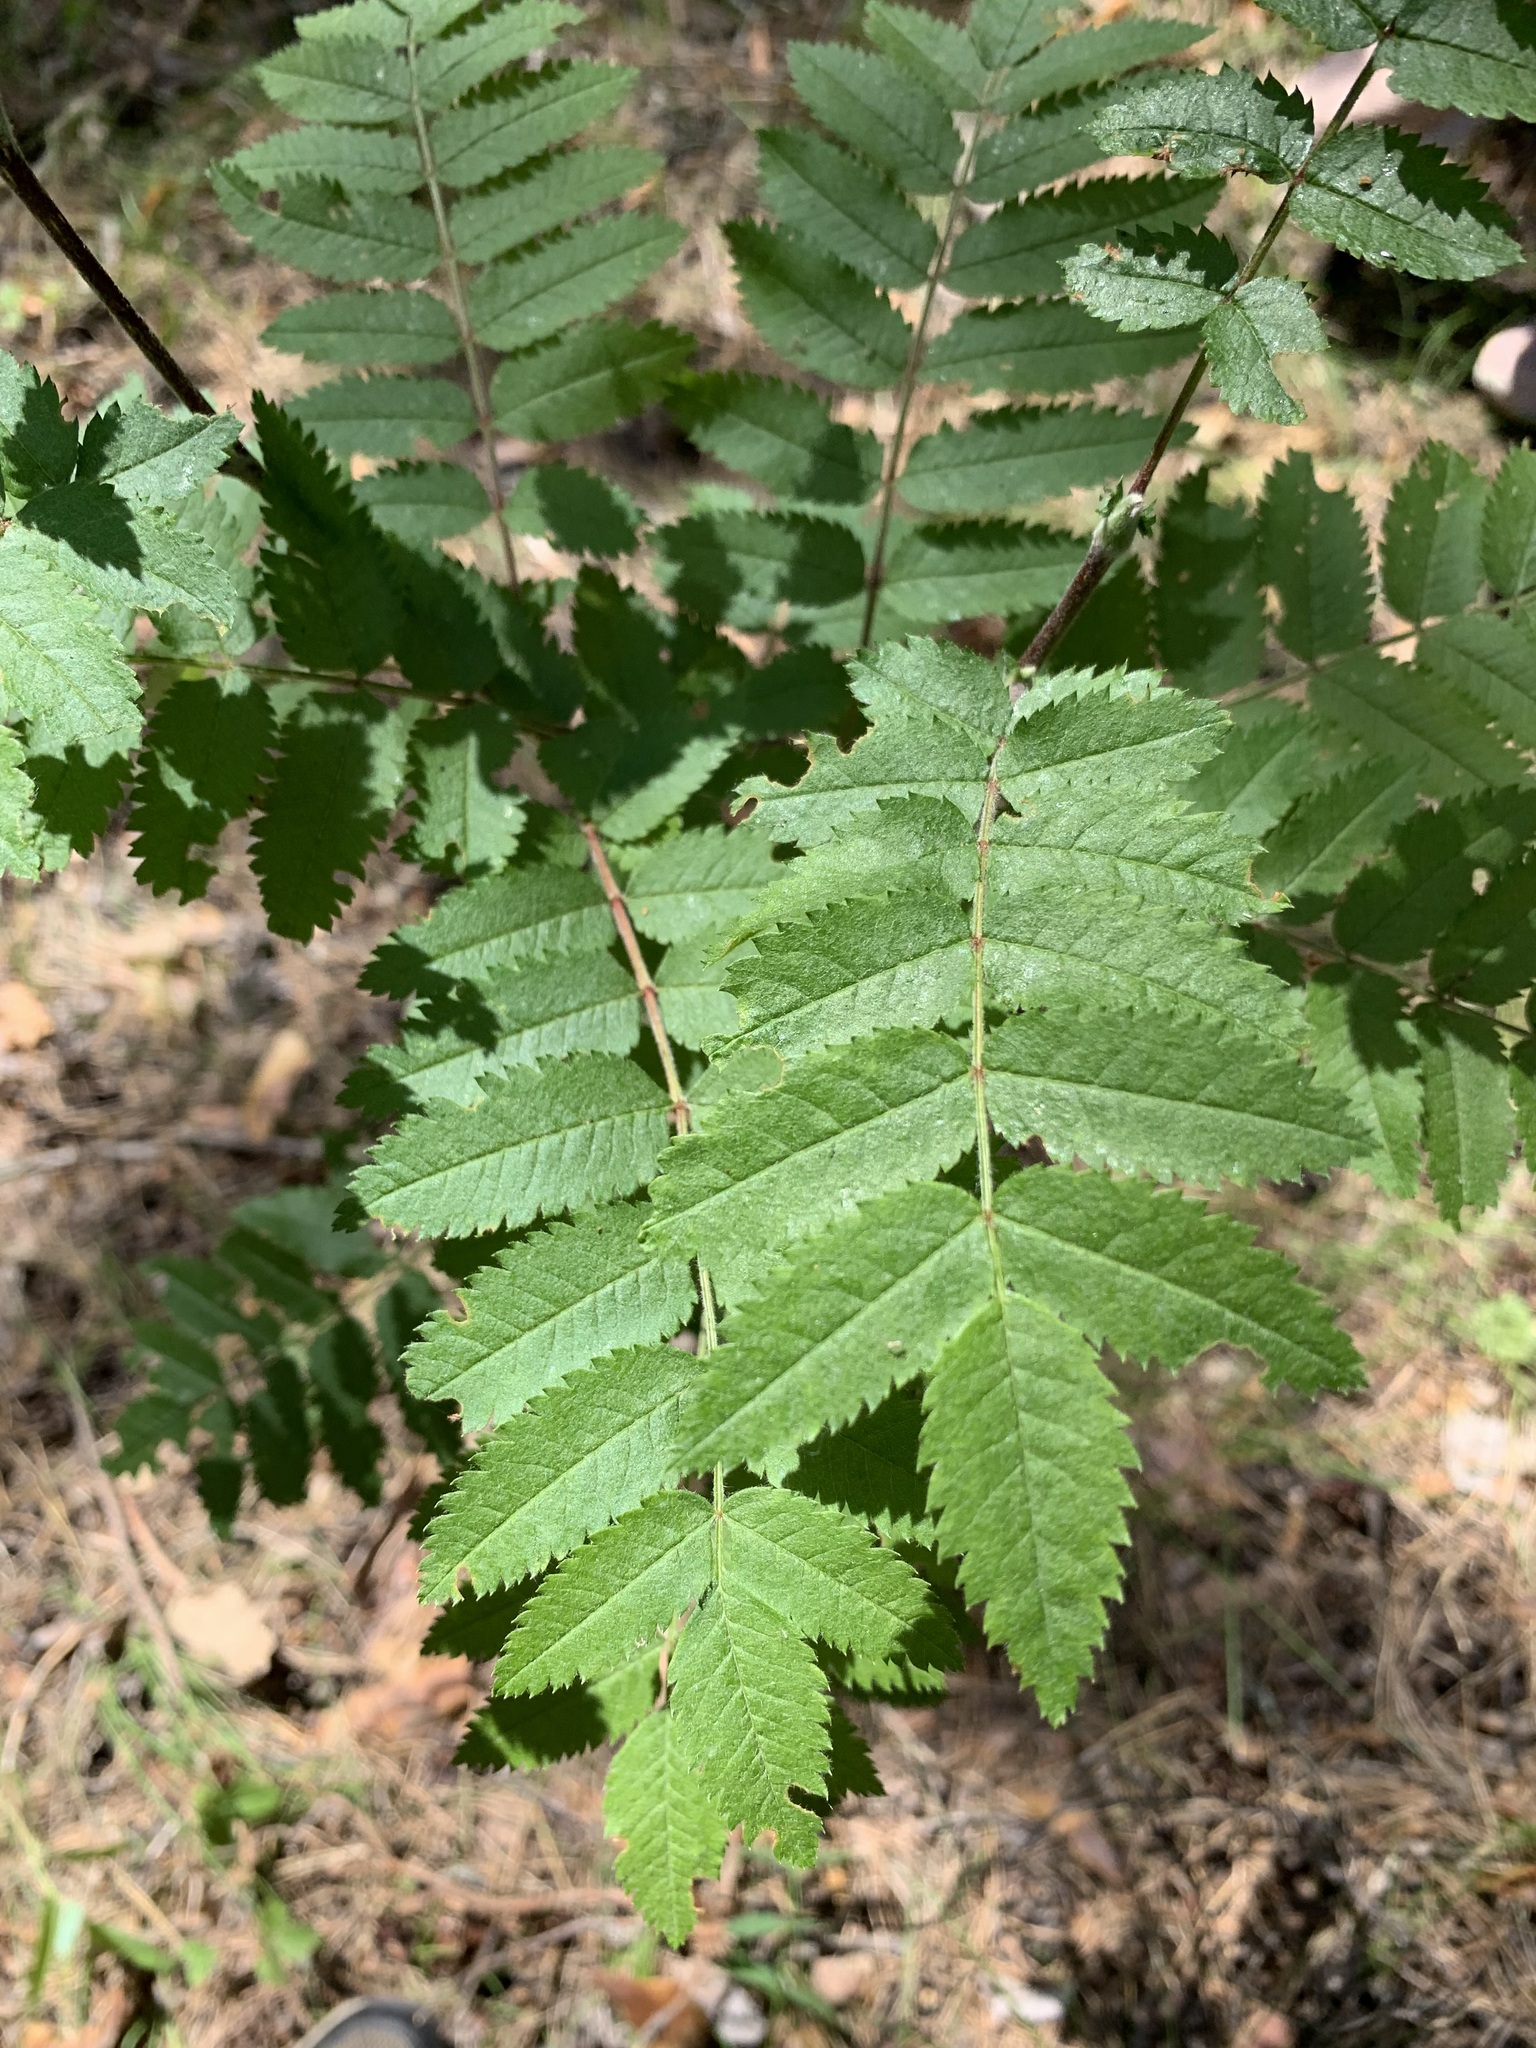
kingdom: Plantae
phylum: Tracheophyta
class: Magnoliopsida
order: Rosales
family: Rosaceae
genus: Sorbus
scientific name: Sorbus aucuparia
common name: Rowan
